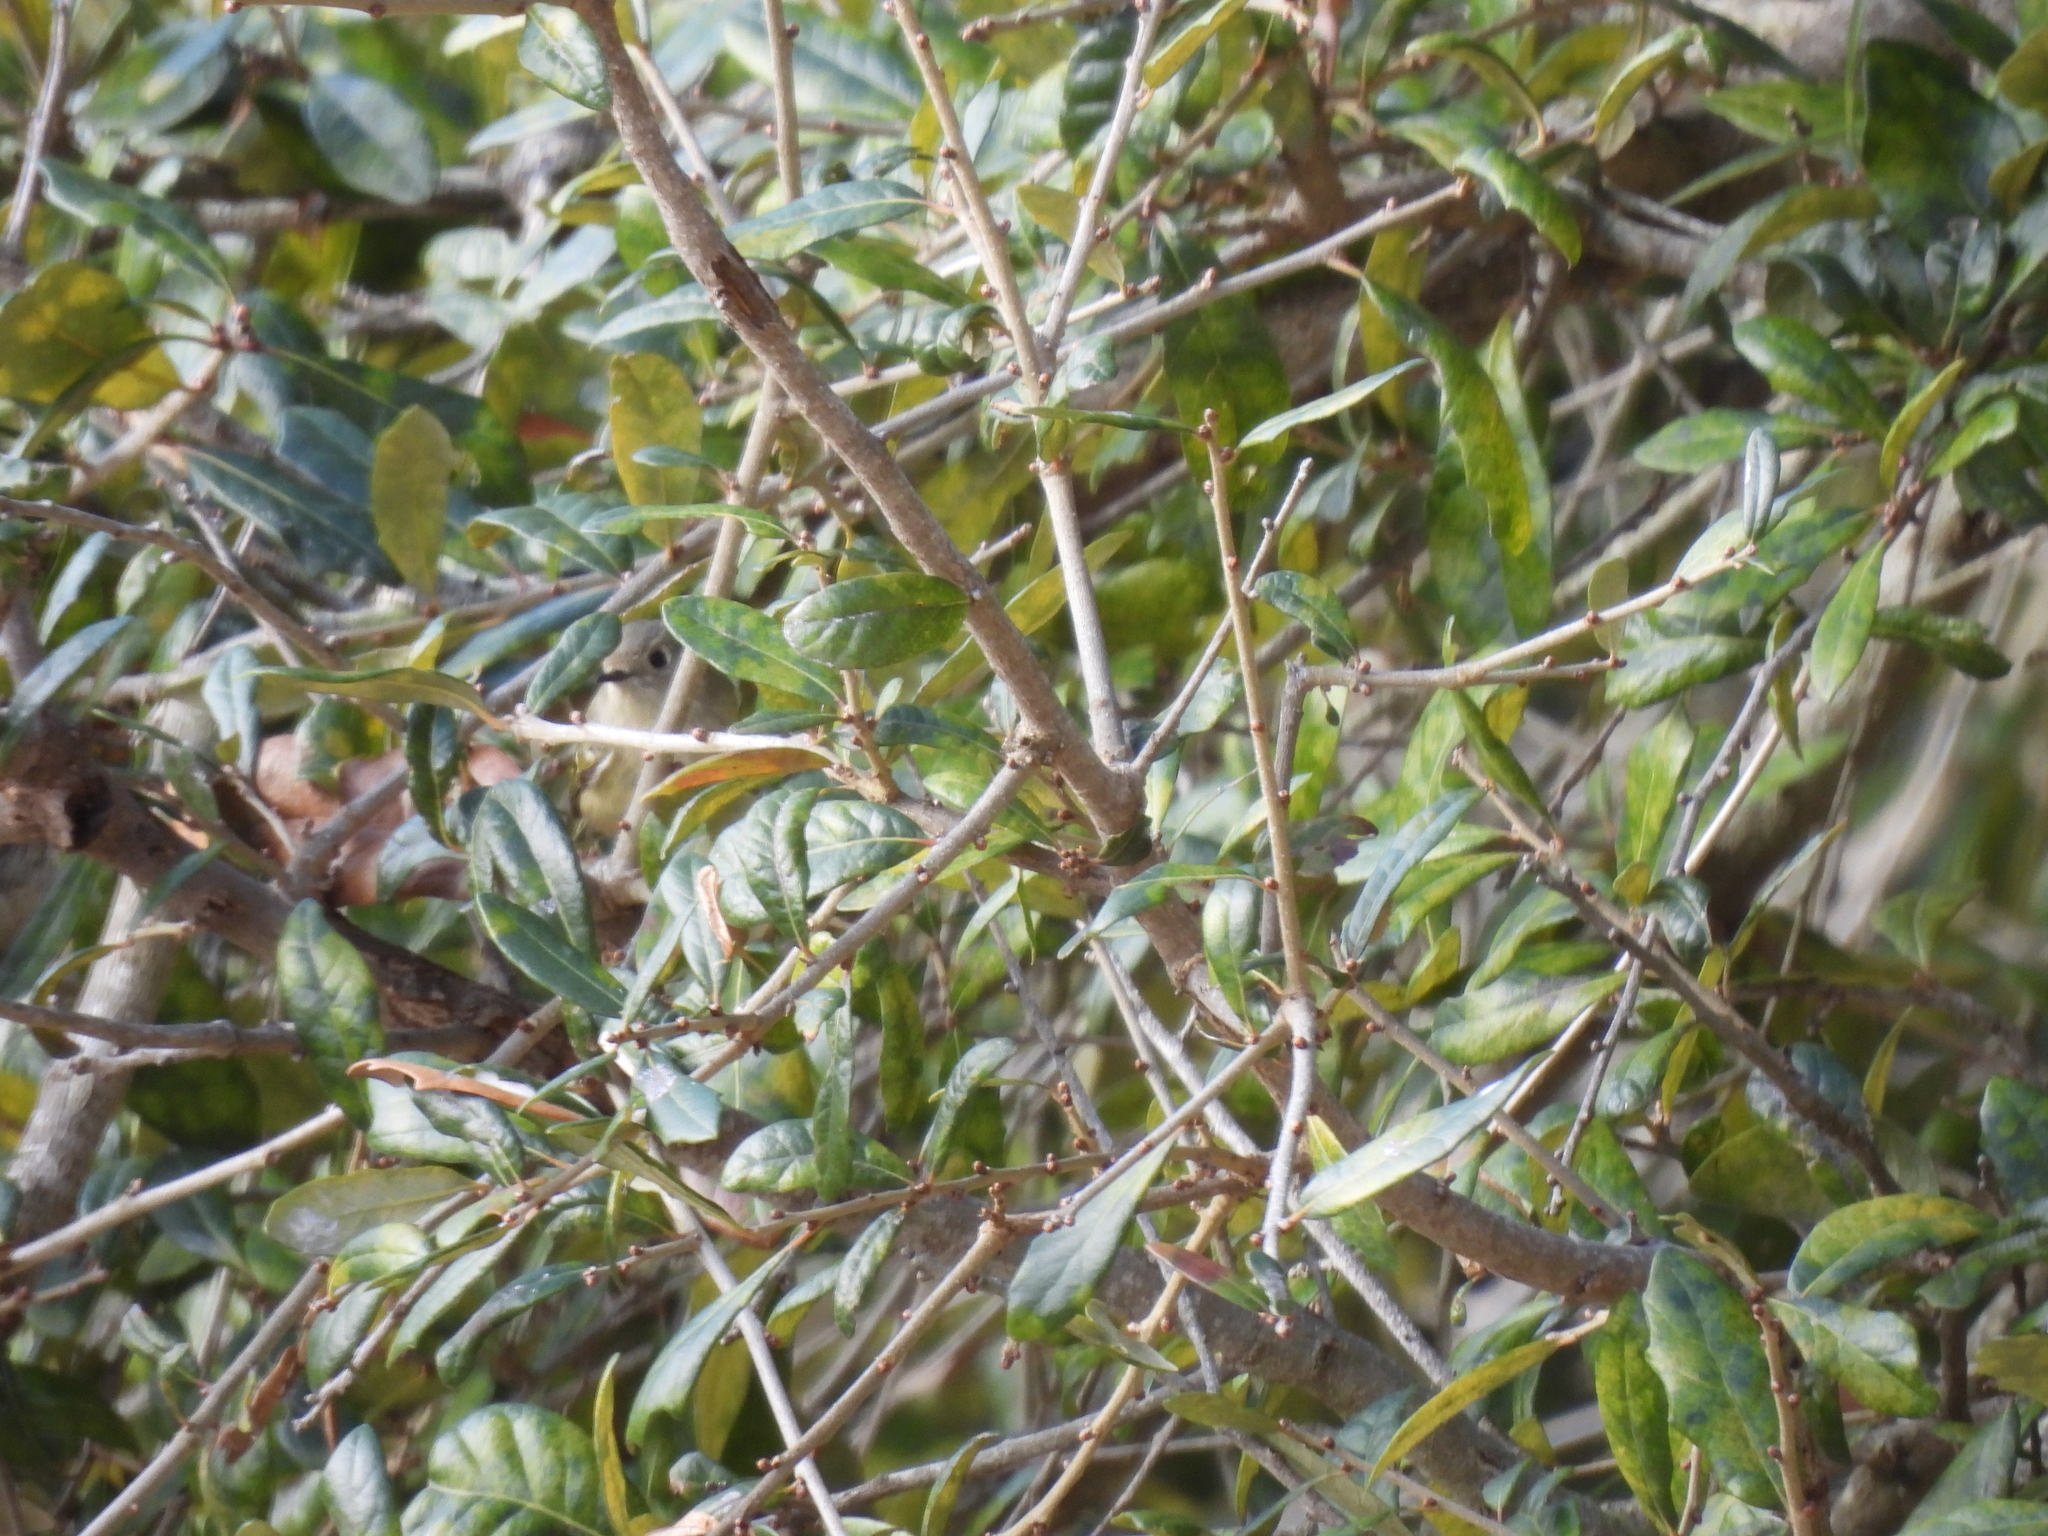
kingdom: Animalia
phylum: Chordata
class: Aves
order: Passeriformes
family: Regulidae
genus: Regulus
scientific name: Regulus calendula
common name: Ruby-crowned kinglet
